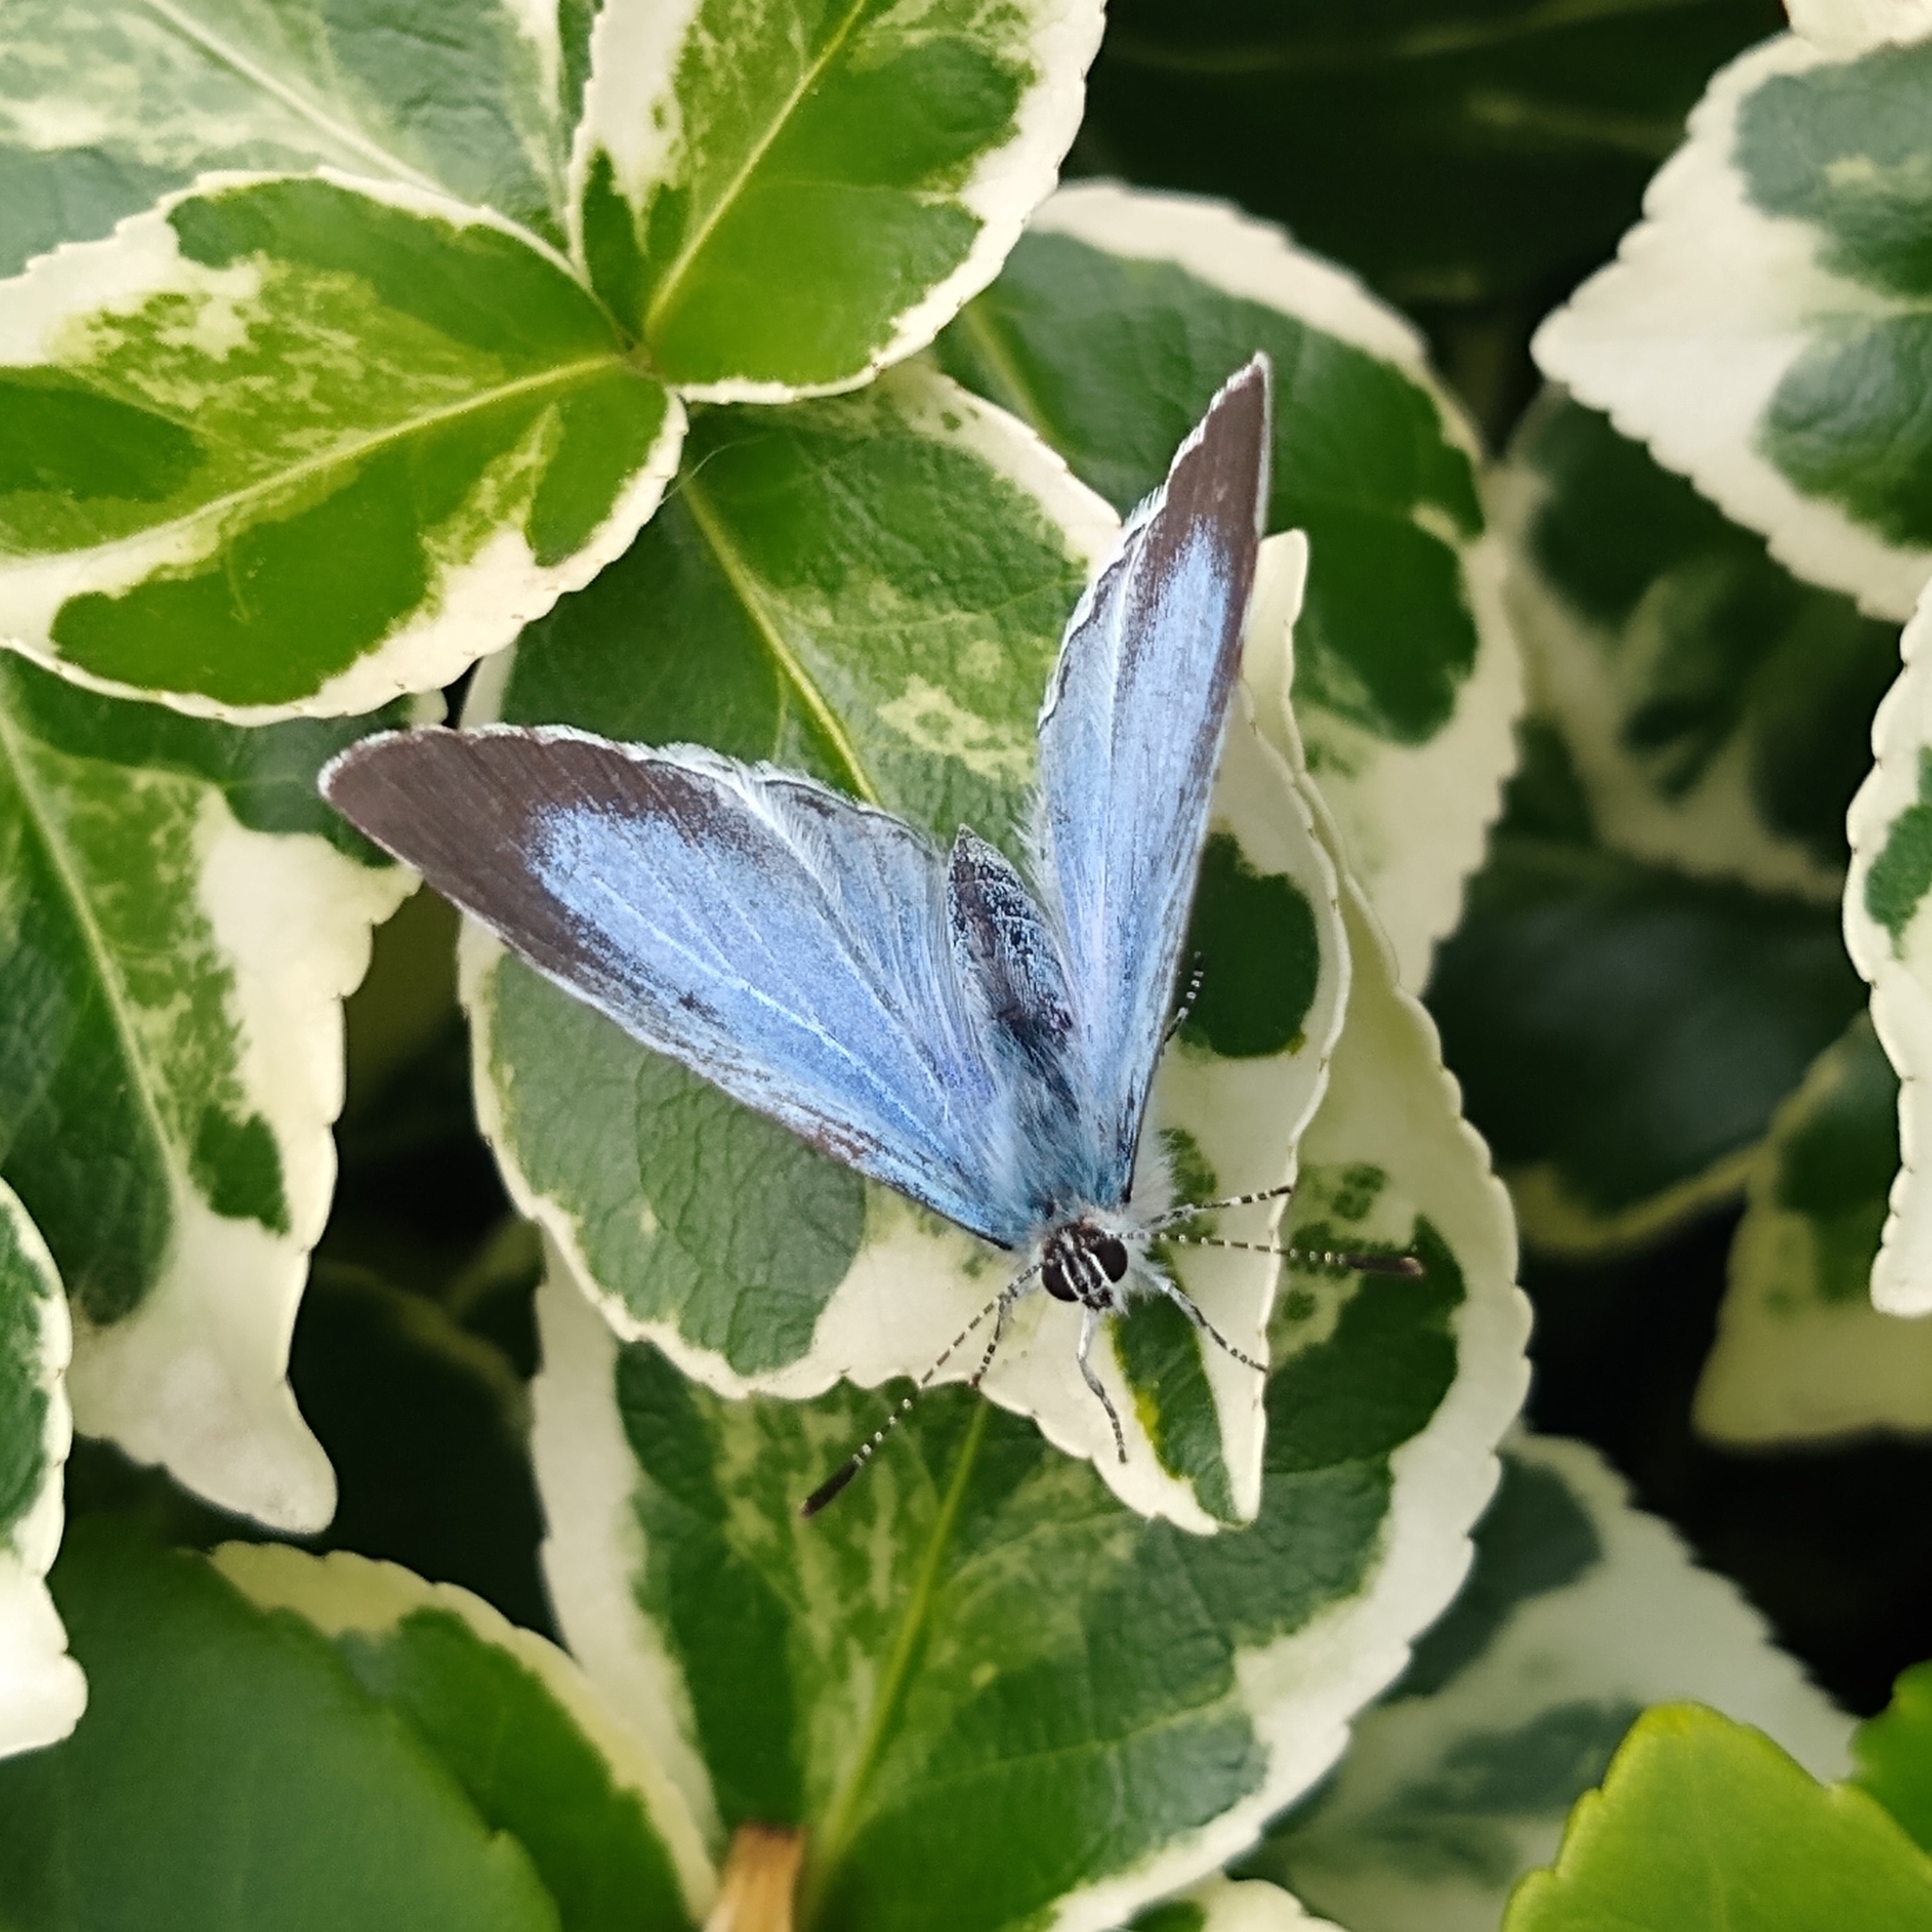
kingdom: Animalia
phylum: Arthropoda
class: Insecta
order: Lepidoptera
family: Lycaenidae
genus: Celastrina
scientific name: Celastrina argiolus
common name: Holly blue
